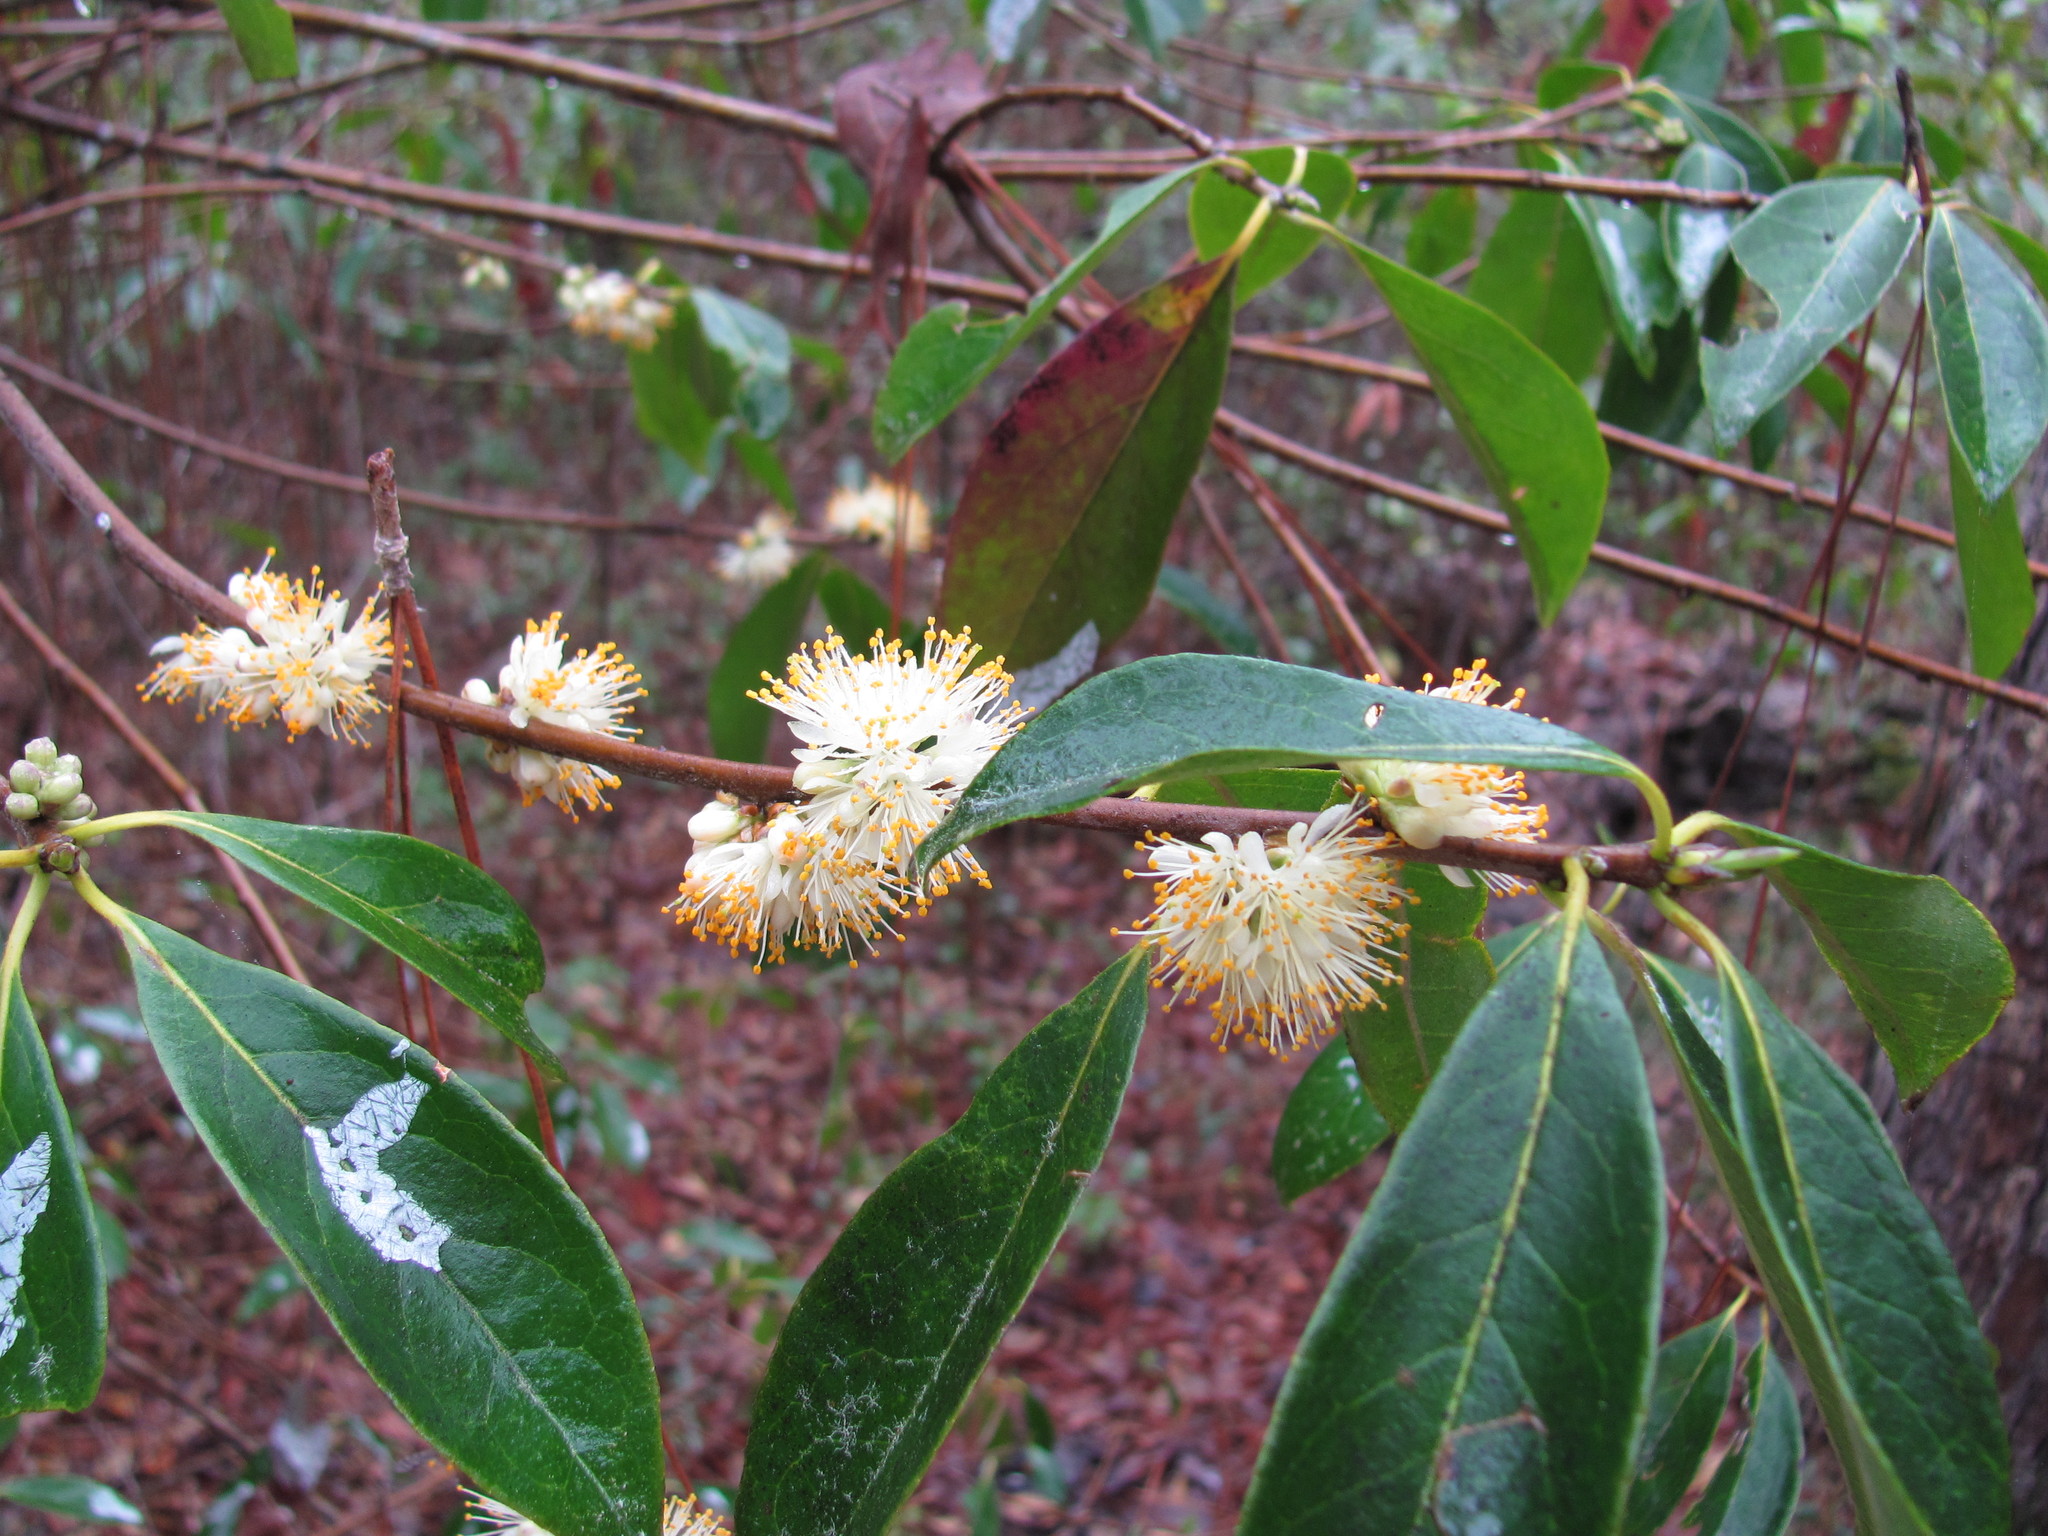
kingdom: Plantae
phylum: Tracheophyta
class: Magnoliopsida
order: Ericales
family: Symplocaceae
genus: Symplocos
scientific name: Symplocos tinctoria
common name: Horse-sugar
